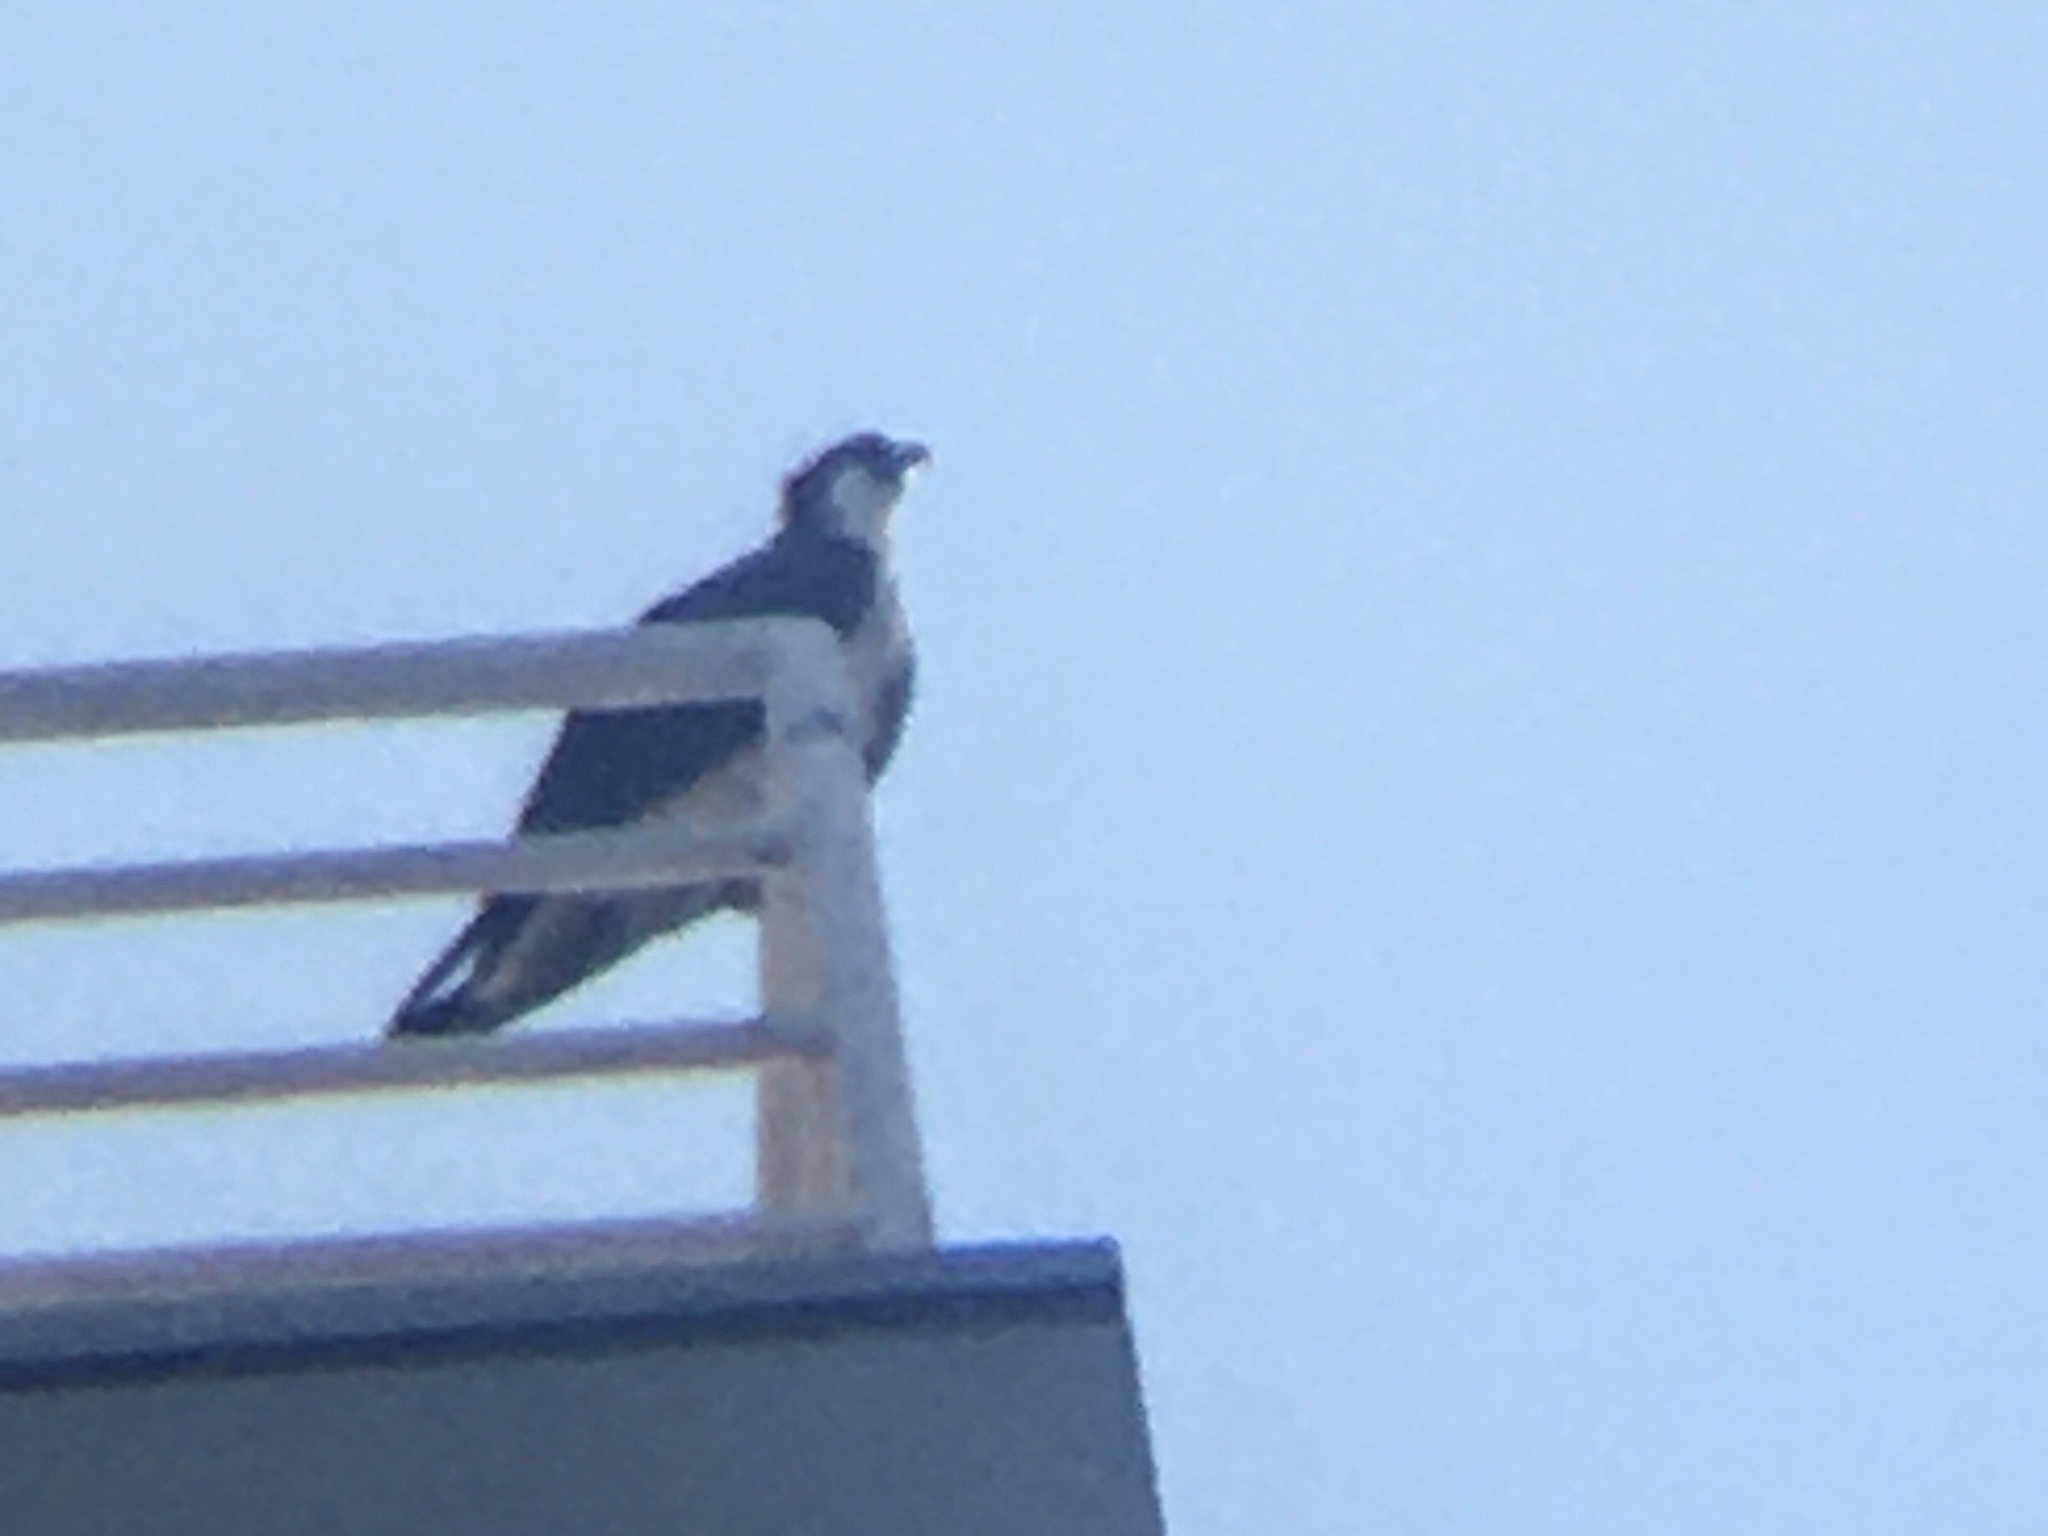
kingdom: Animalia
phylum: Chordata
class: Aves
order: Accipitriformes
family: Pandionidae
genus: Pandion
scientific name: Pandion haliaetus
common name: Osprey
